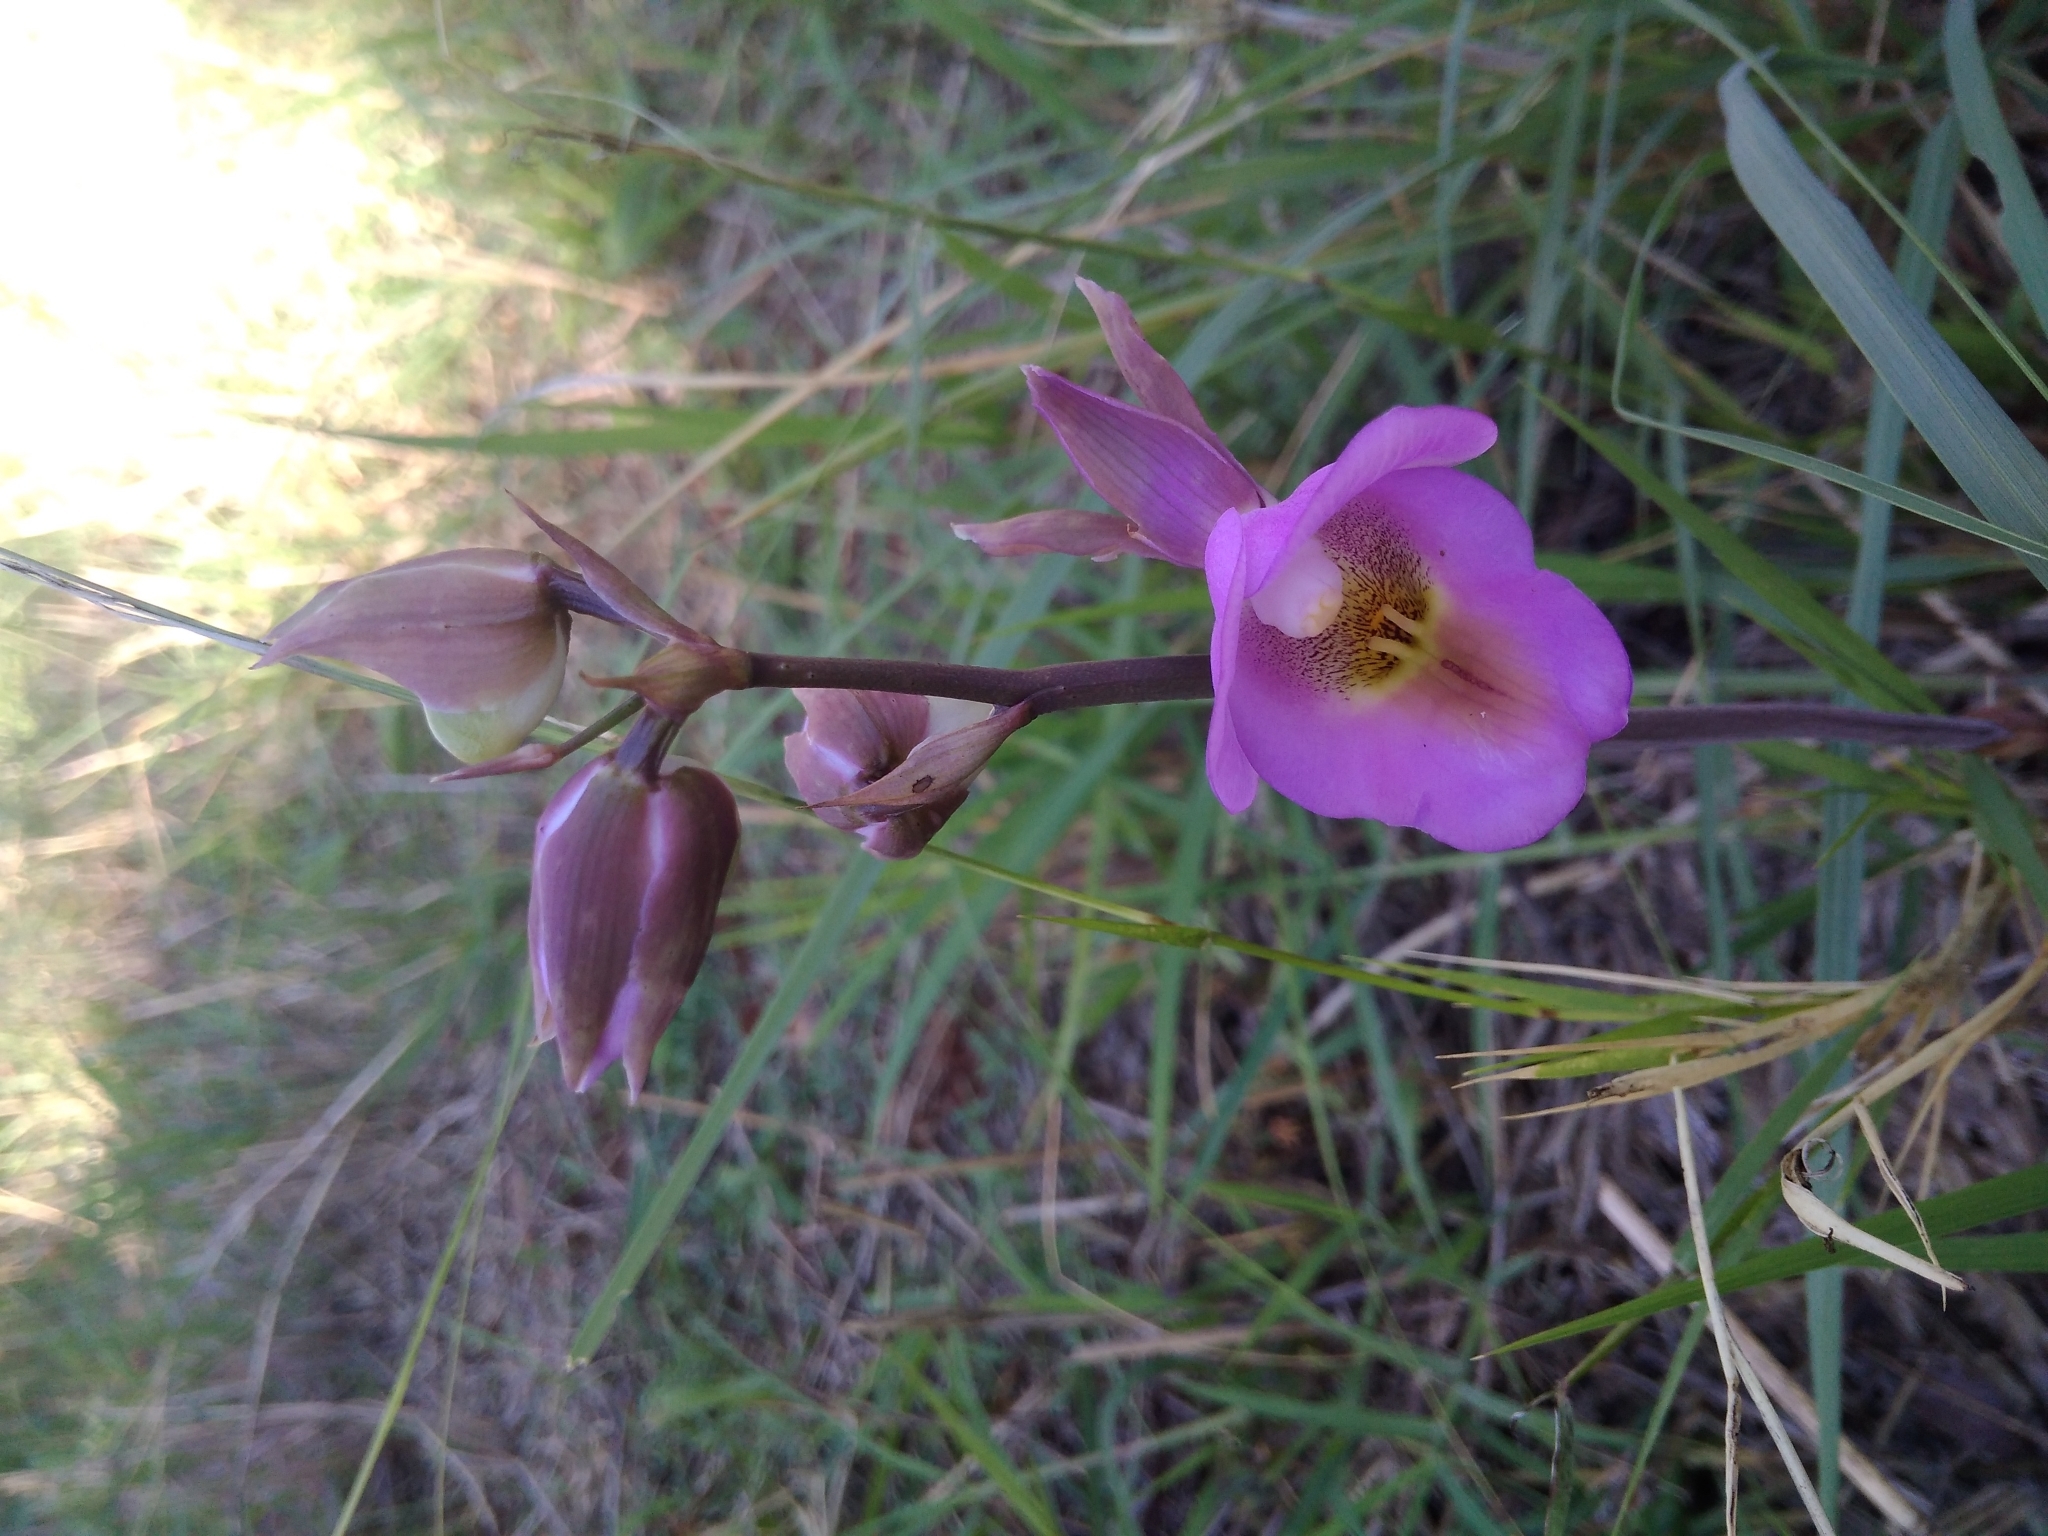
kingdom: Plantae
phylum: Tracheophyta
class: Liliopsida
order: Asparagales
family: Orchidaceae
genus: Eulophia
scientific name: Eulophia cucullata
